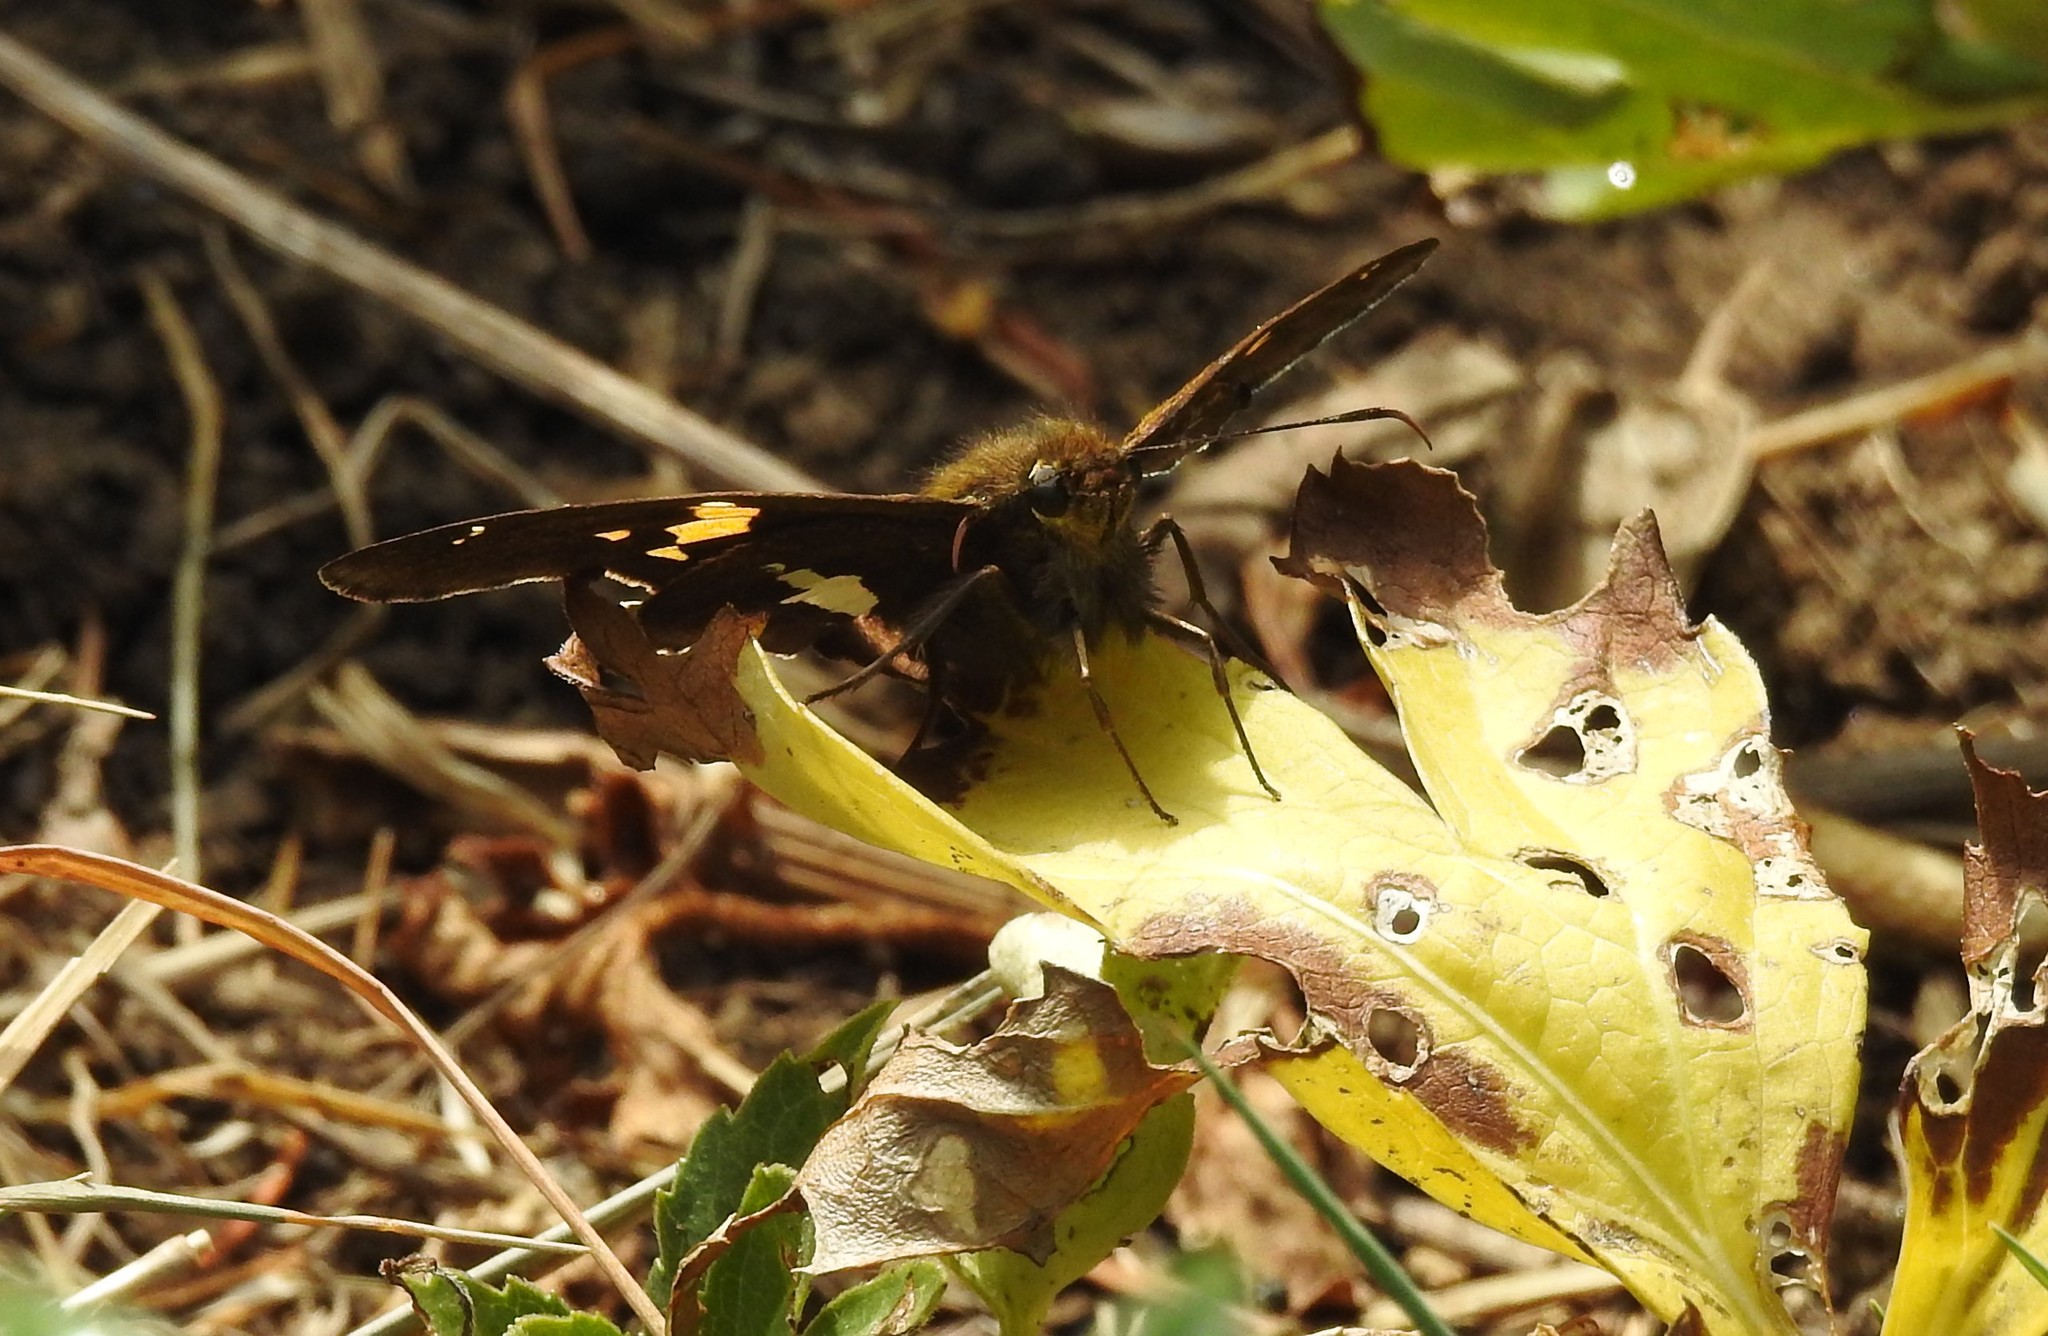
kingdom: Animalia
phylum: Arthropoda
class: Insecta
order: Lepidoptera
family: Hesperiidae
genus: Epargyreus
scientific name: Epargyreus clarus
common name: Silver-spotted skipper
